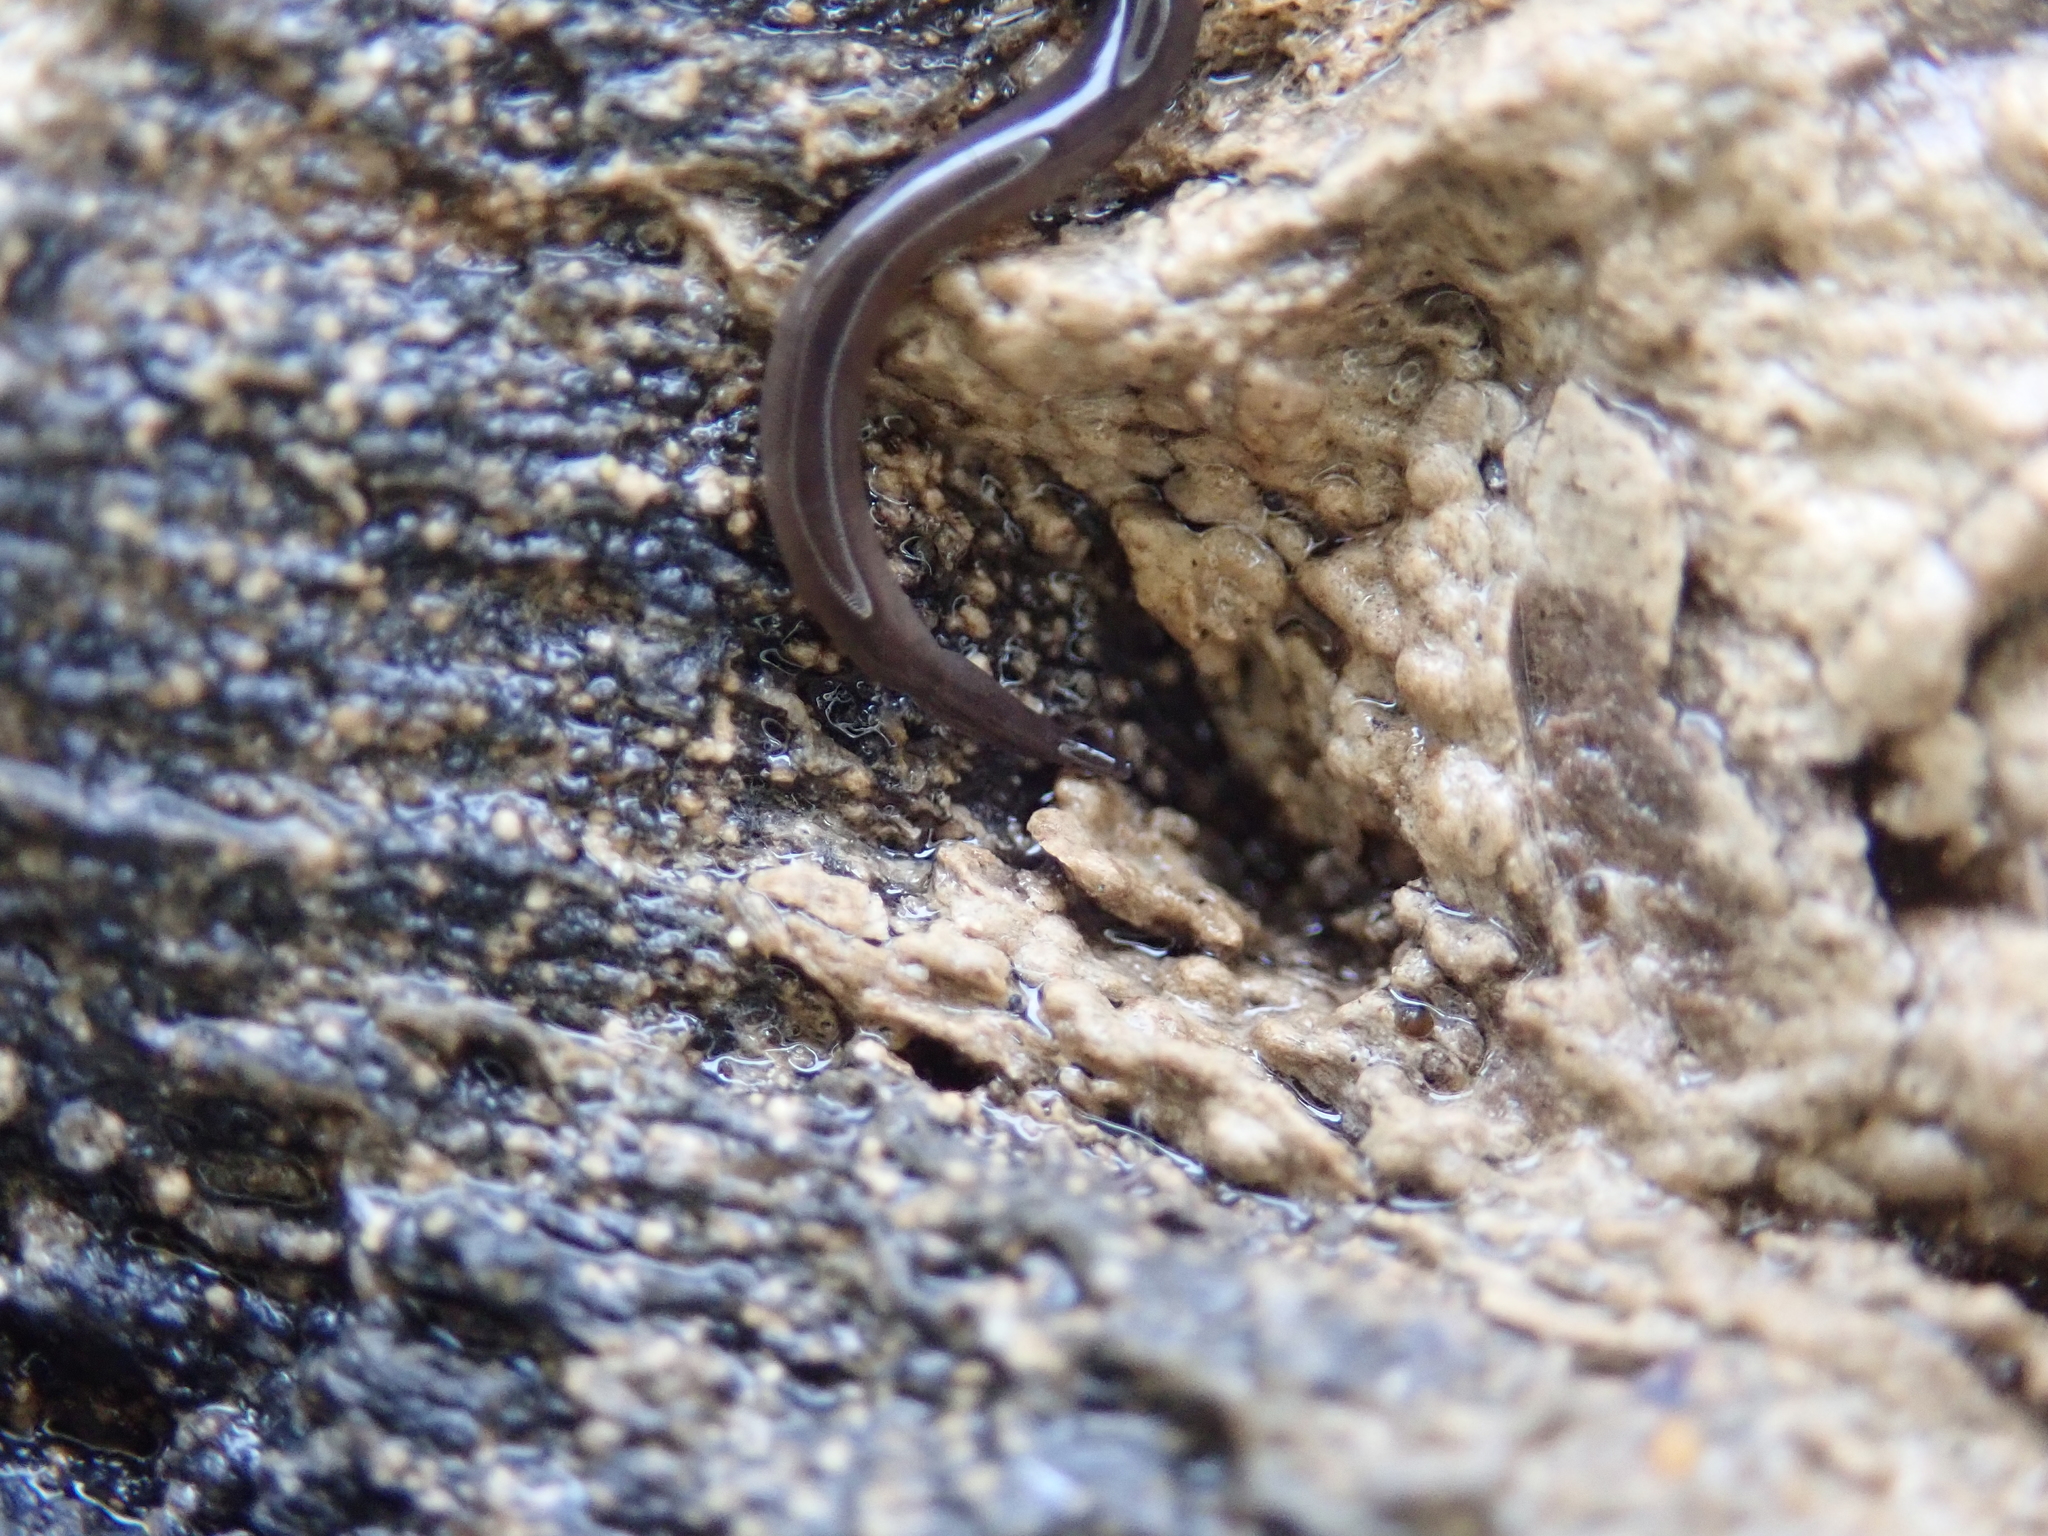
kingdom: Animalia
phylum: Nemertea
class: Hoplonemertea
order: Monostilifera
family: Neesiidae
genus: Paranemertes
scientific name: Paranemertes peregrina
